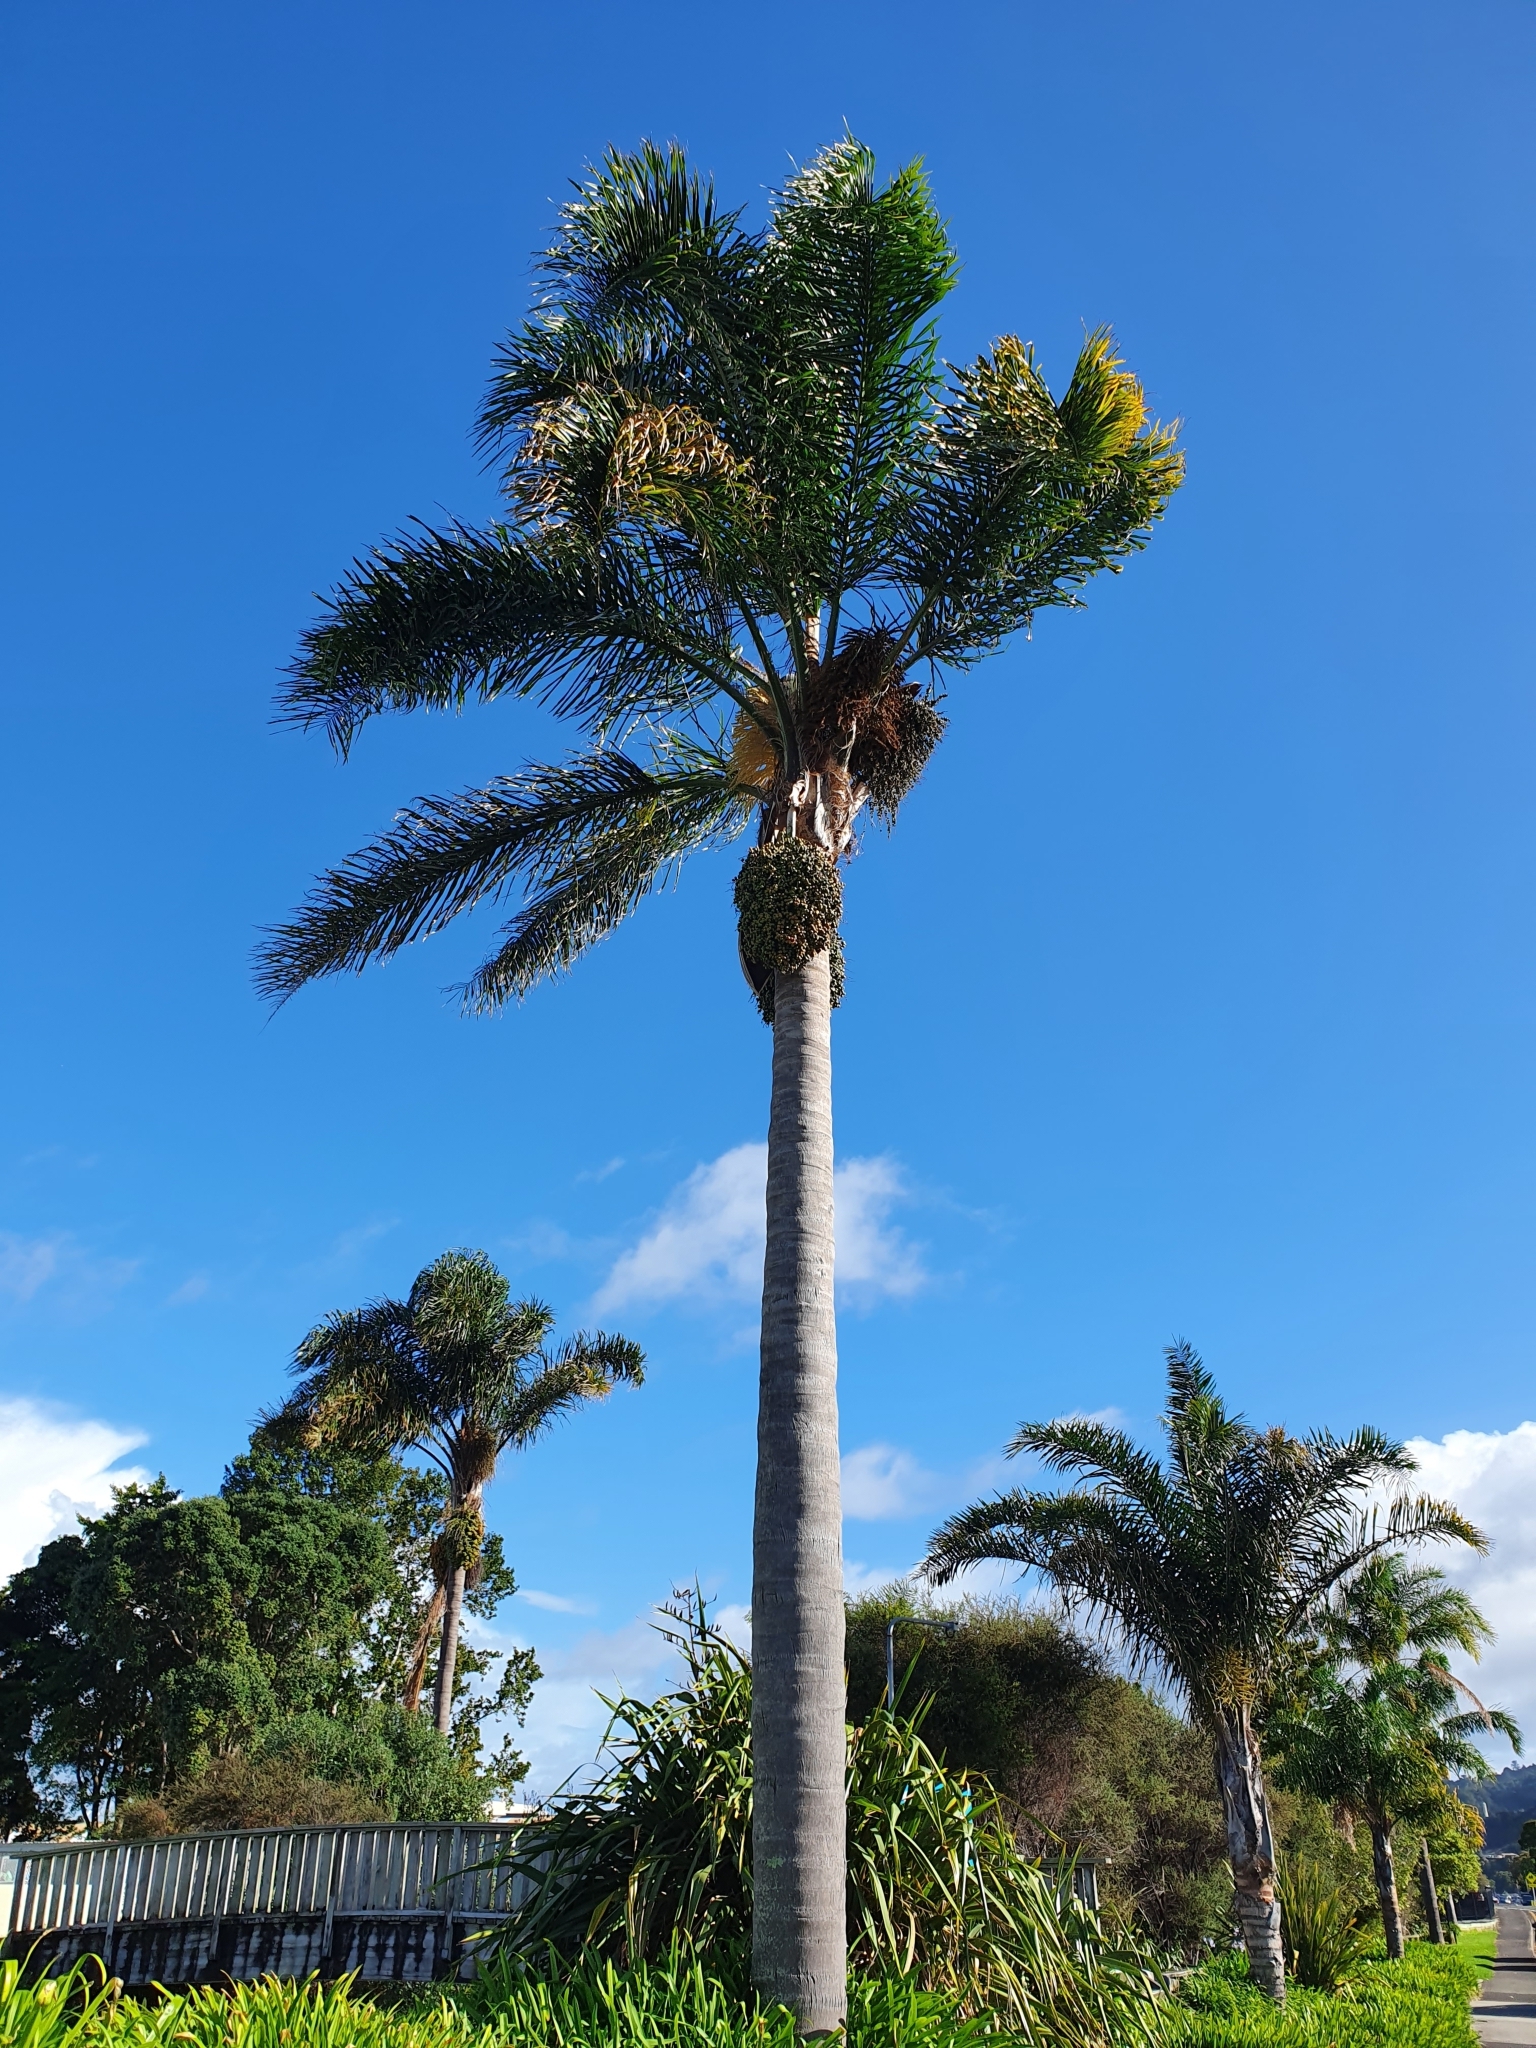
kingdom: Plantae
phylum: Tracheophyta
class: Liliopsida
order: Arecales
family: Arecaceae
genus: Syagrus
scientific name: Syagrus romanzoffiana
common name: Queen palm
